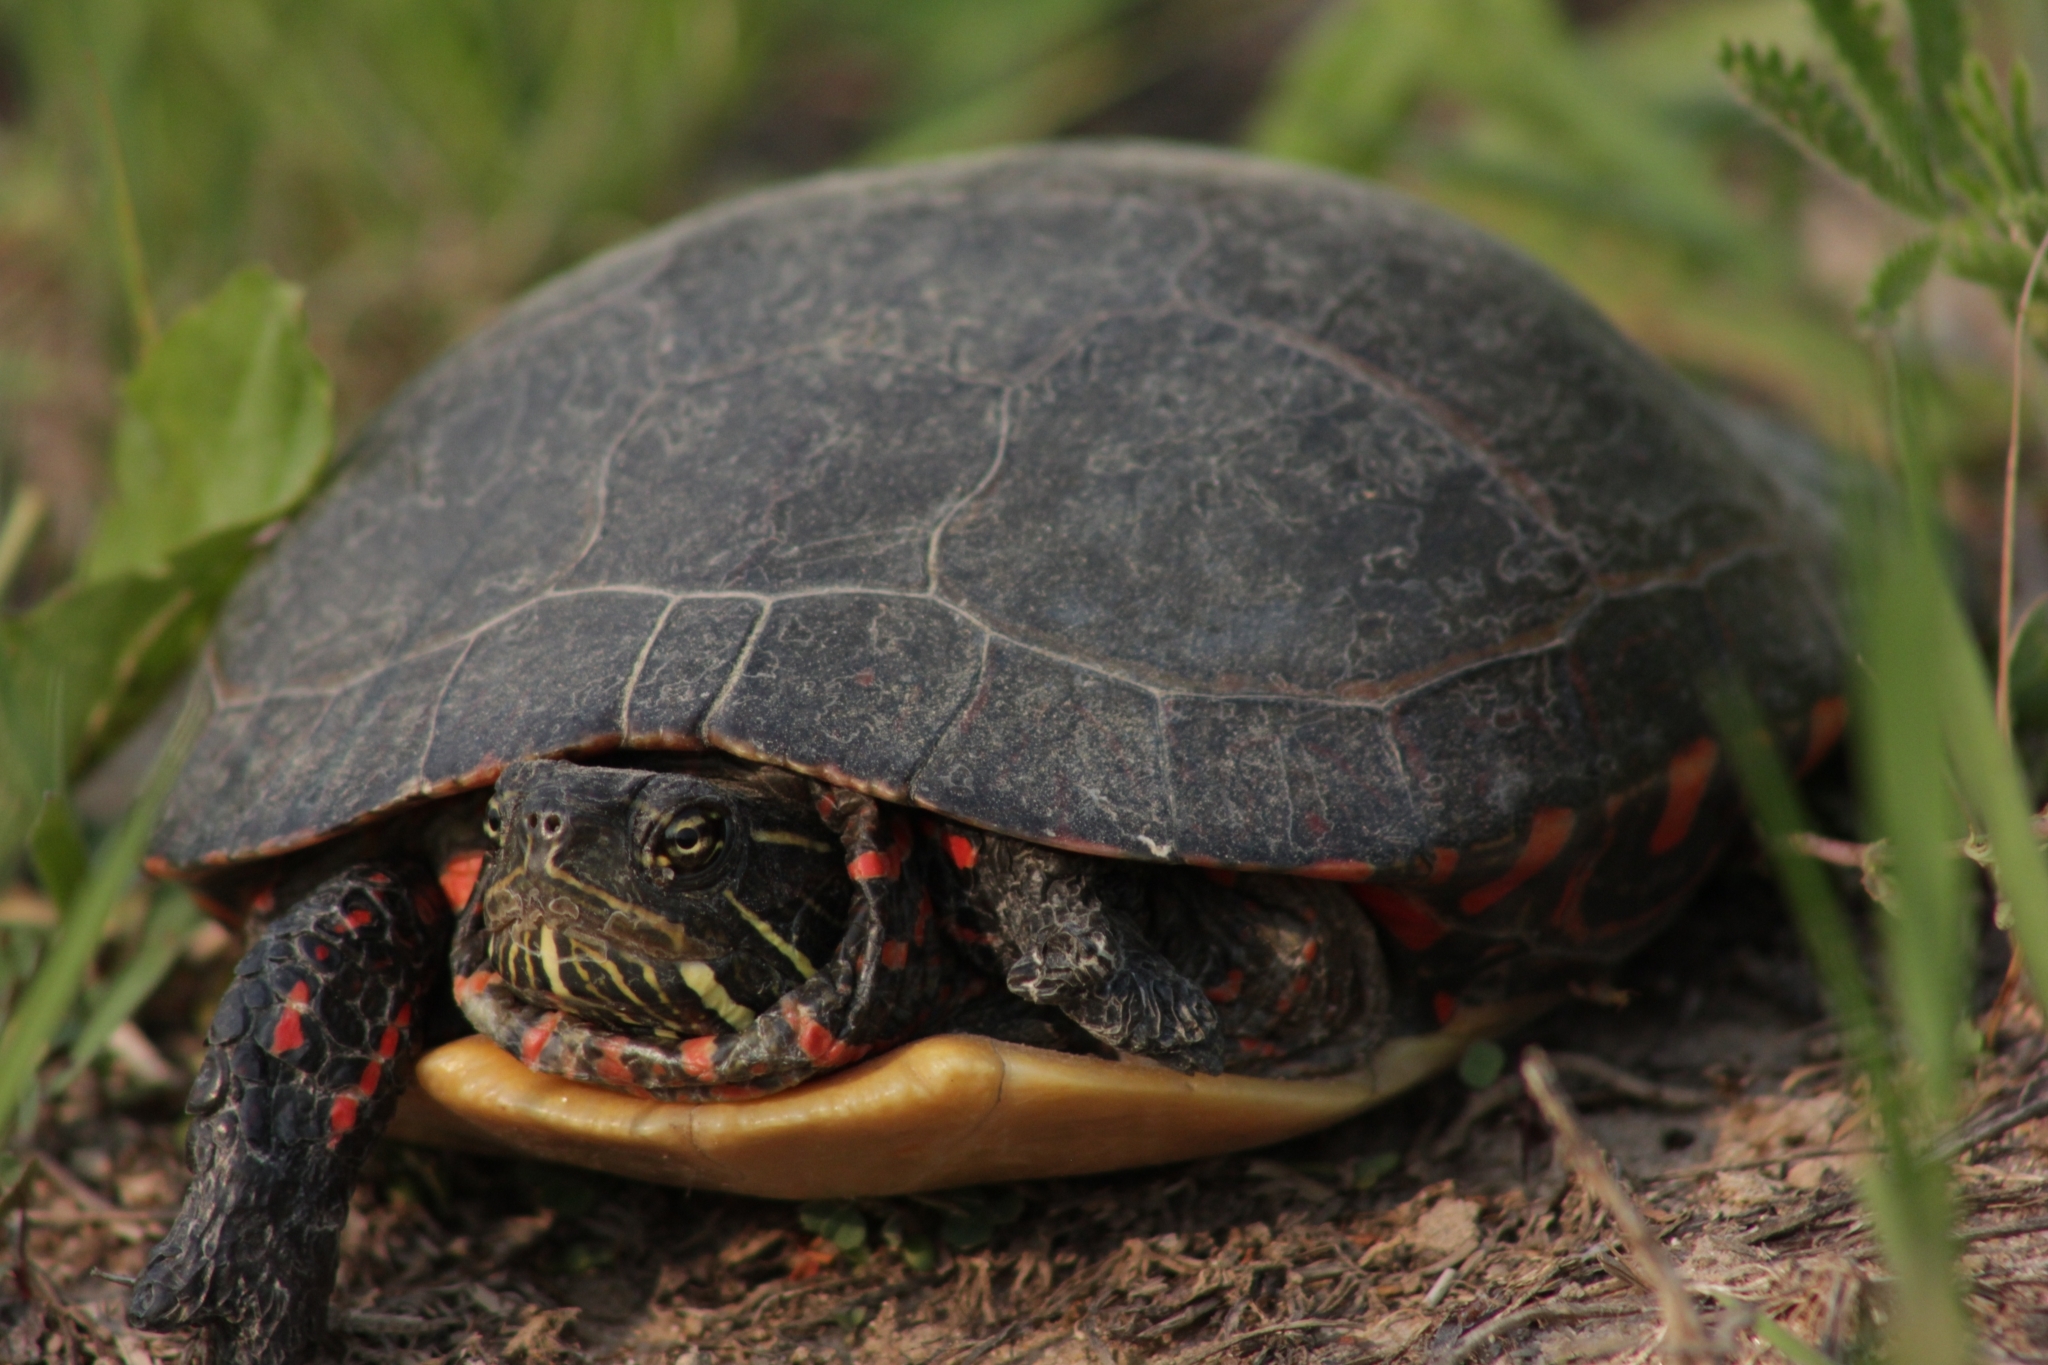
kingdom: Animalia
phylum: Chordata
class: Testudines
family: Emydidae
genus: Chrysemys
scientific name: Chrysemys picta
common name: Painted turtle
